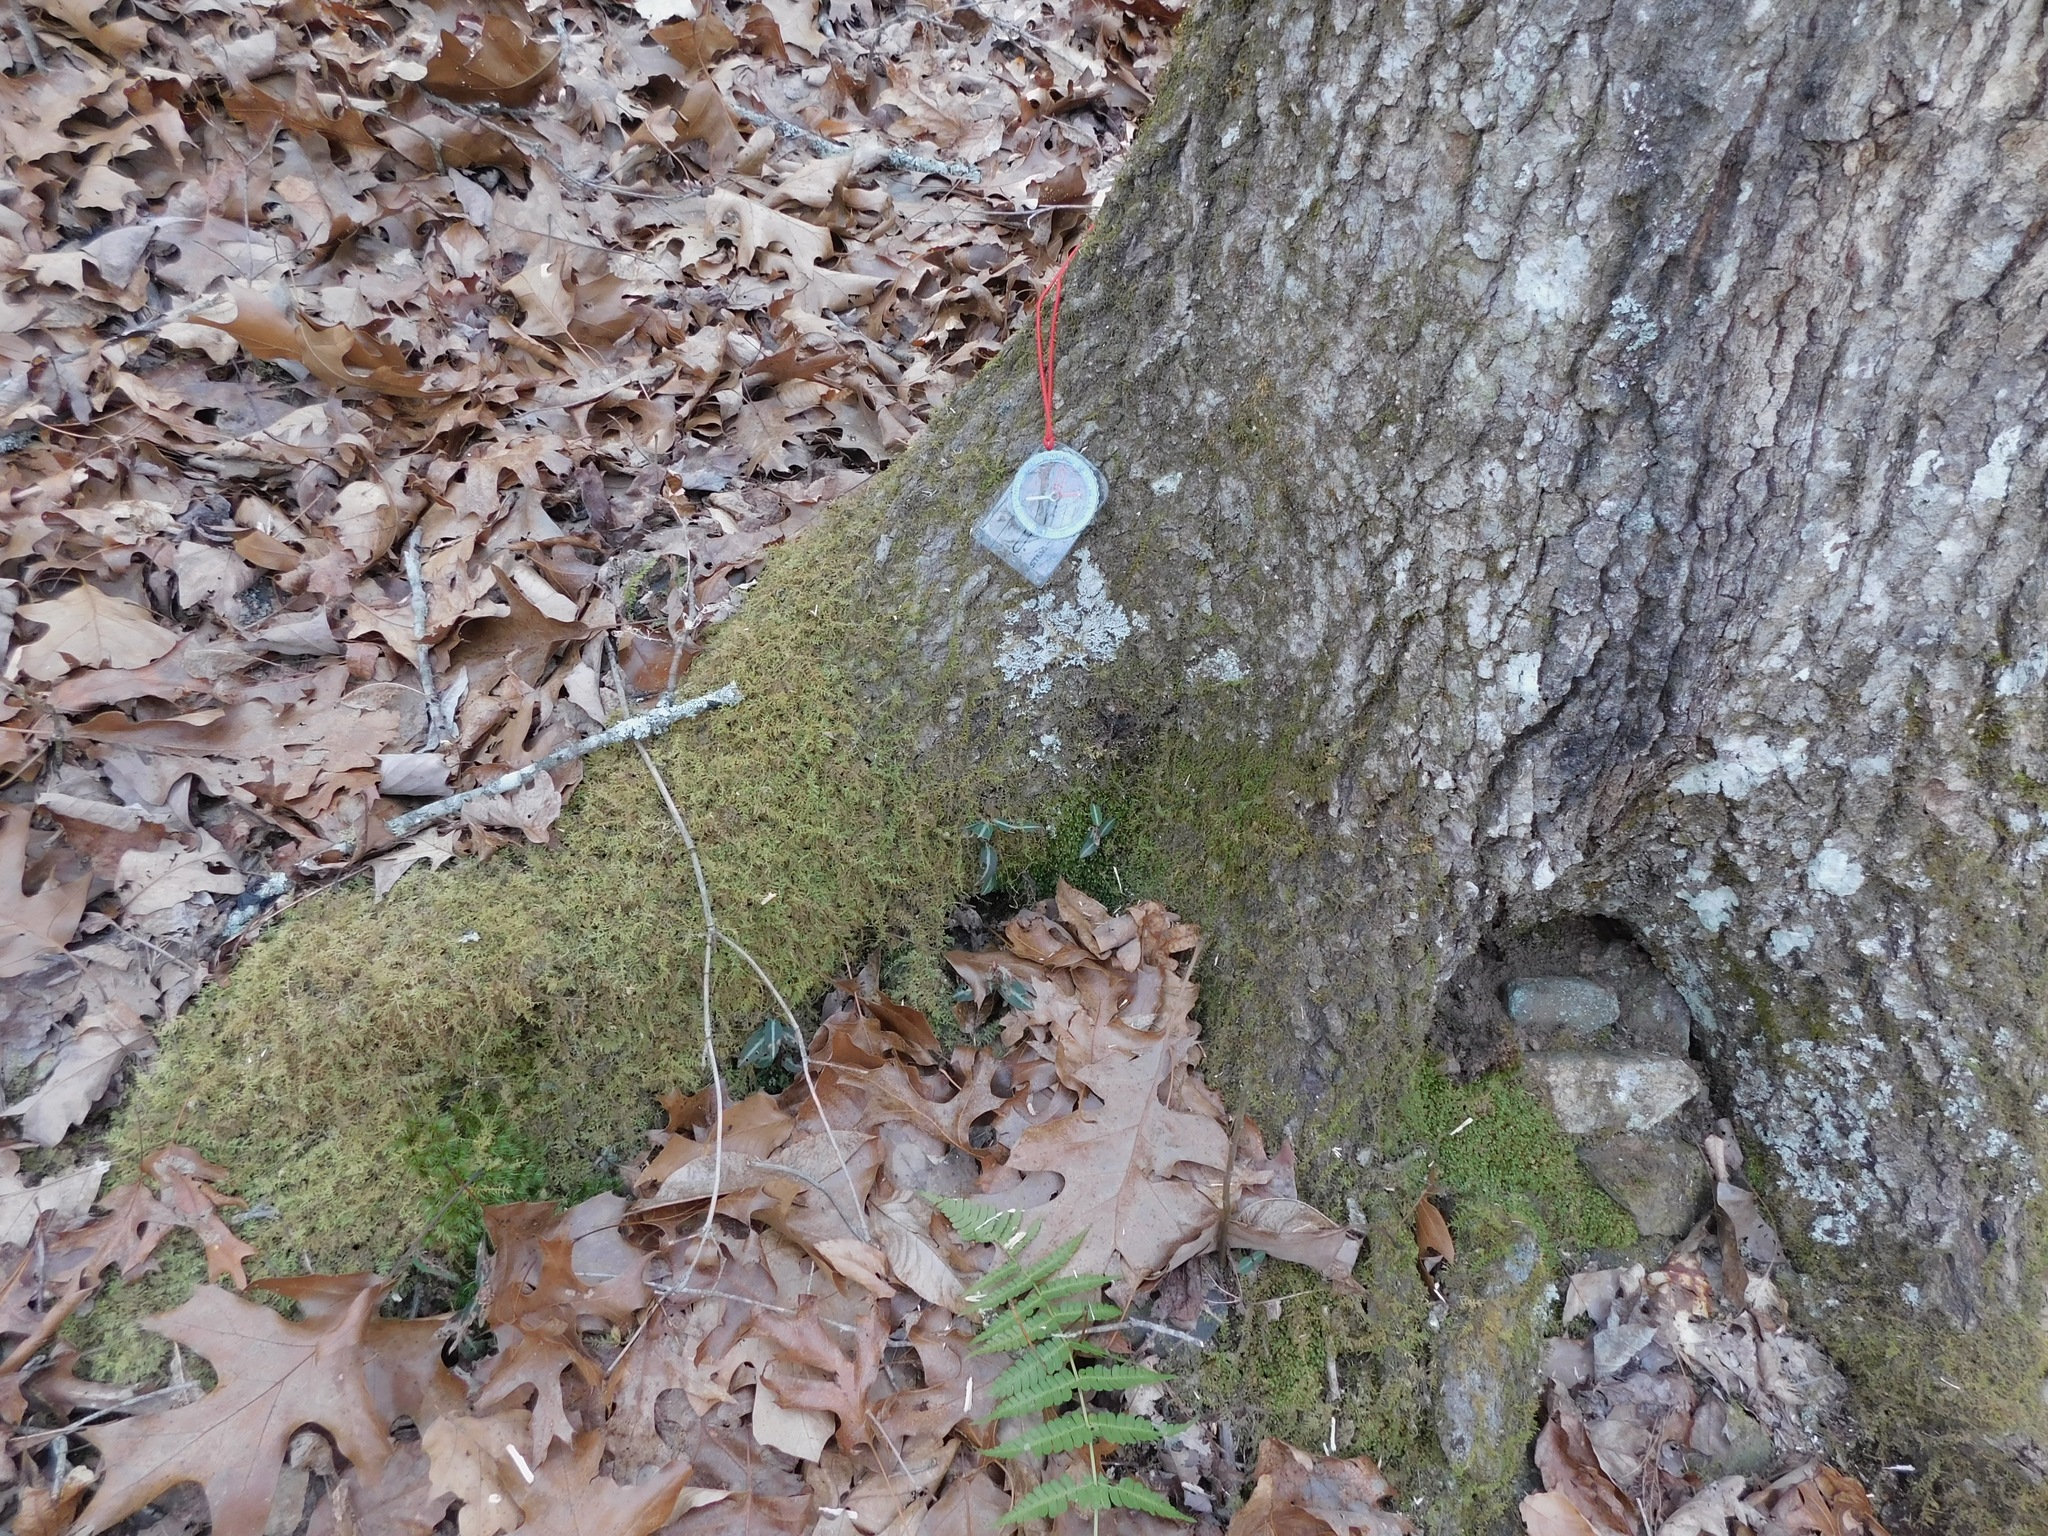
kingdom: Fungi
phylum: Ascomycota
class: Lecanoromycetes
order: Caliciales
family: Physciaceae
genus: Heterodermia
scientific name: Heterodermia speciosa
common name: Powdered fringe lichen
